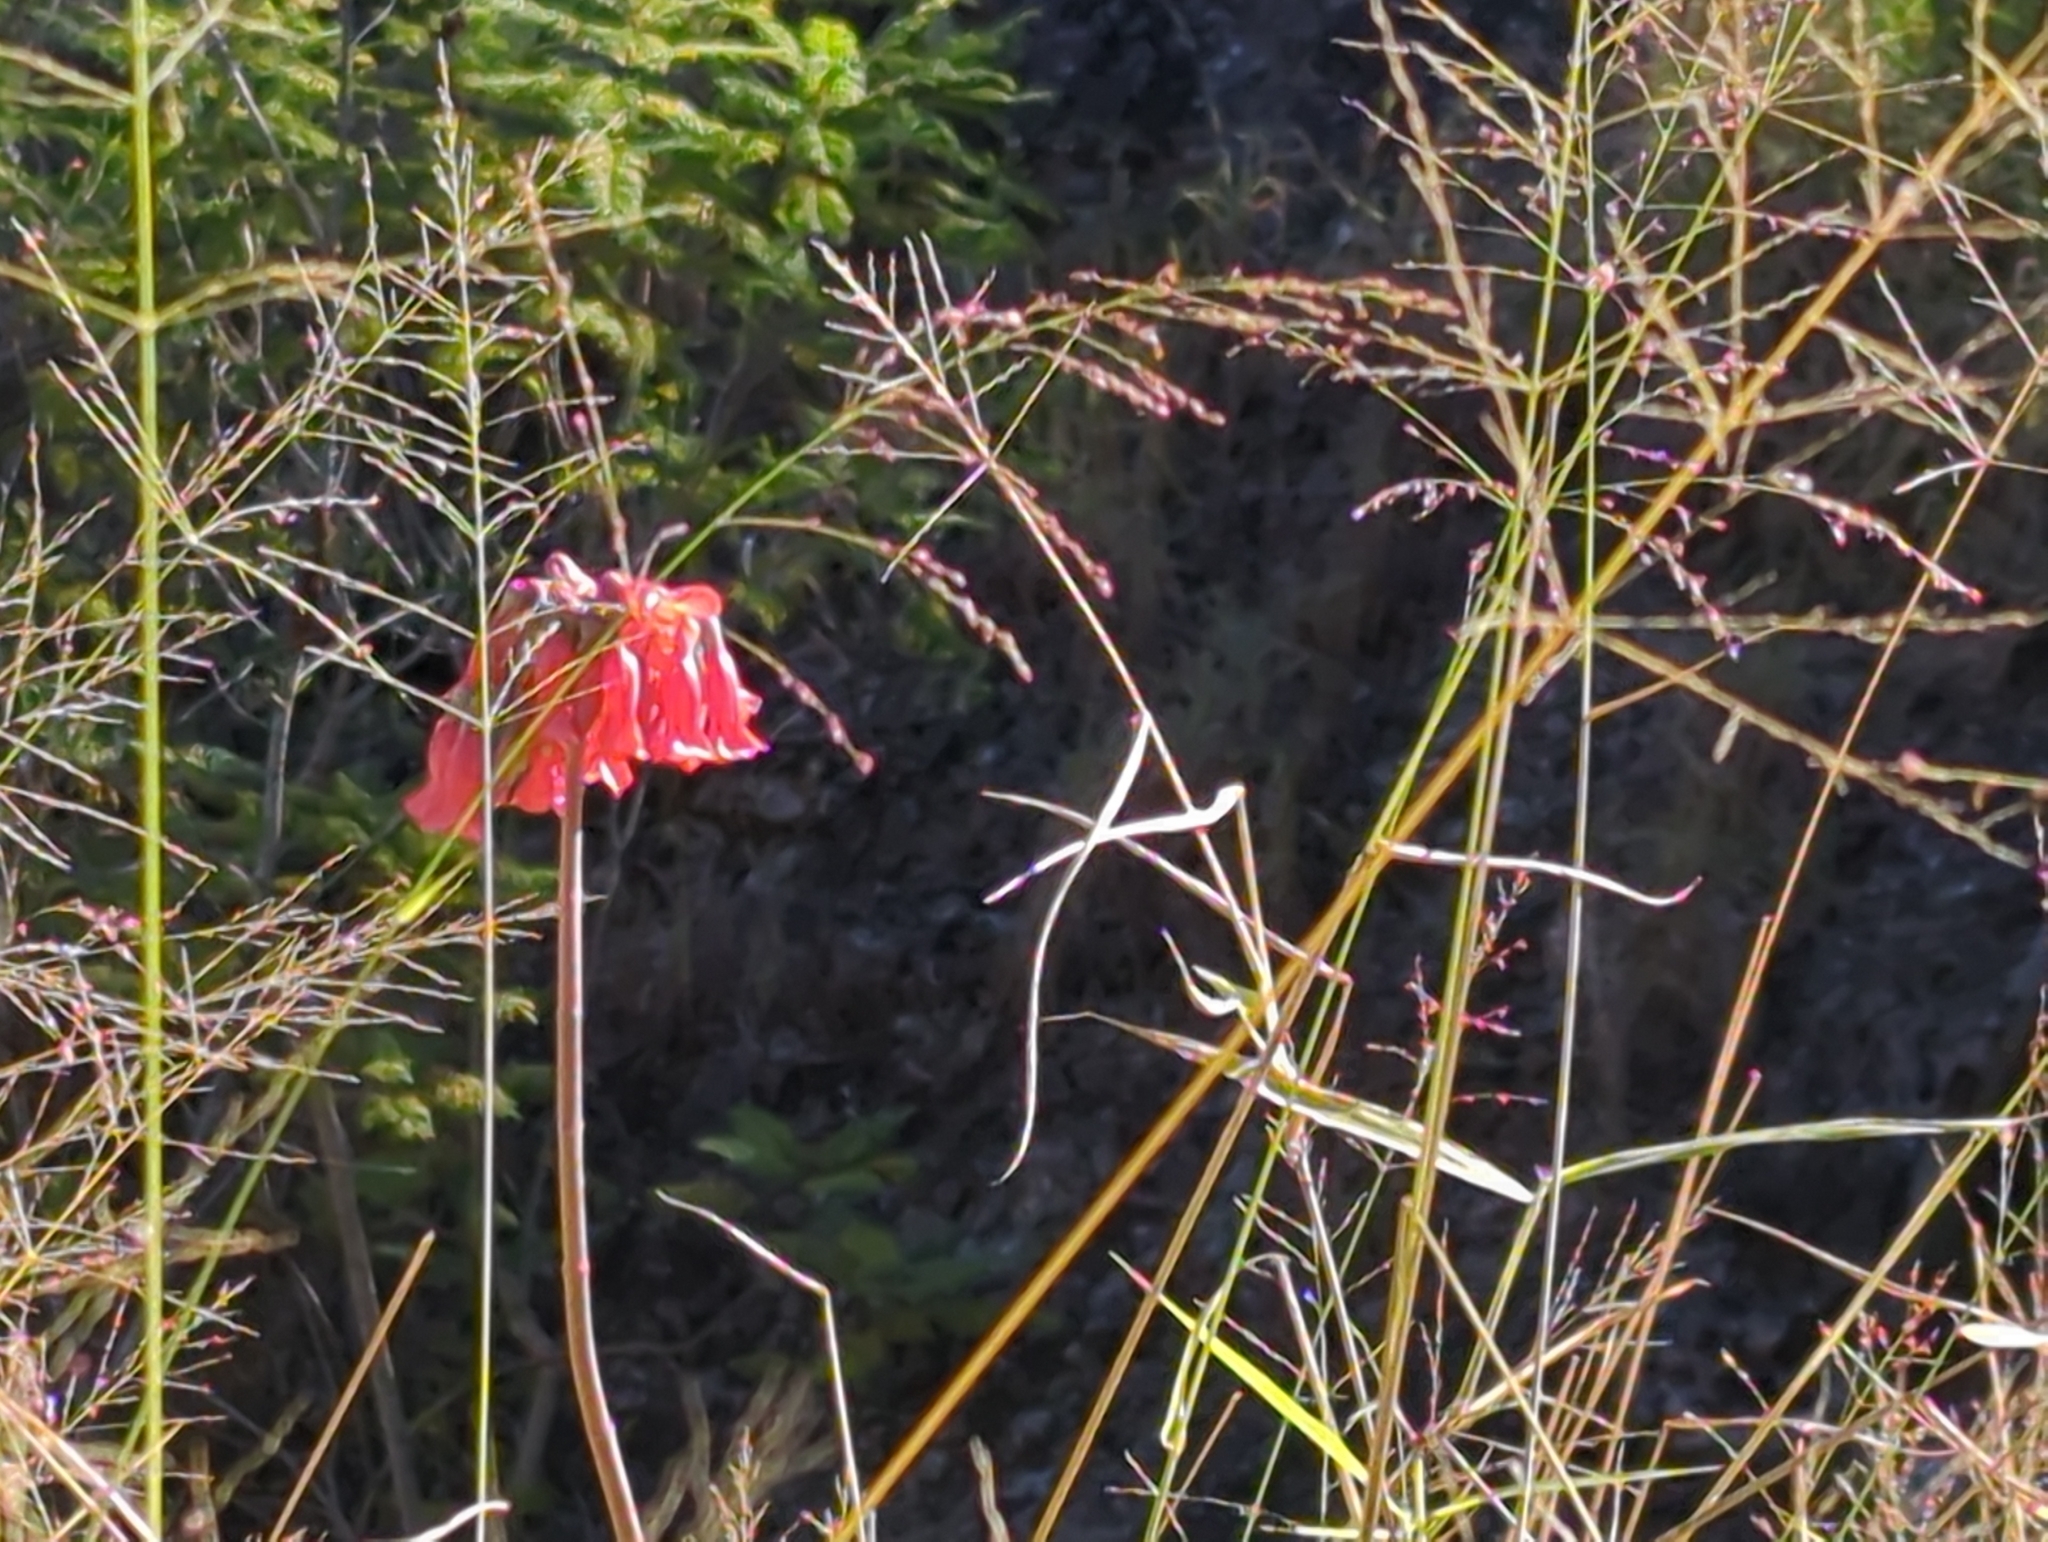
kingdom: Plantae
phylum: Tracheophyta
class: Magnoliopsida
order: Saxifragales
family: Crassulaceae
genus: Kalanchoe
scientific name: Kalanchoe delagoensis
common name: Chandelier plant
